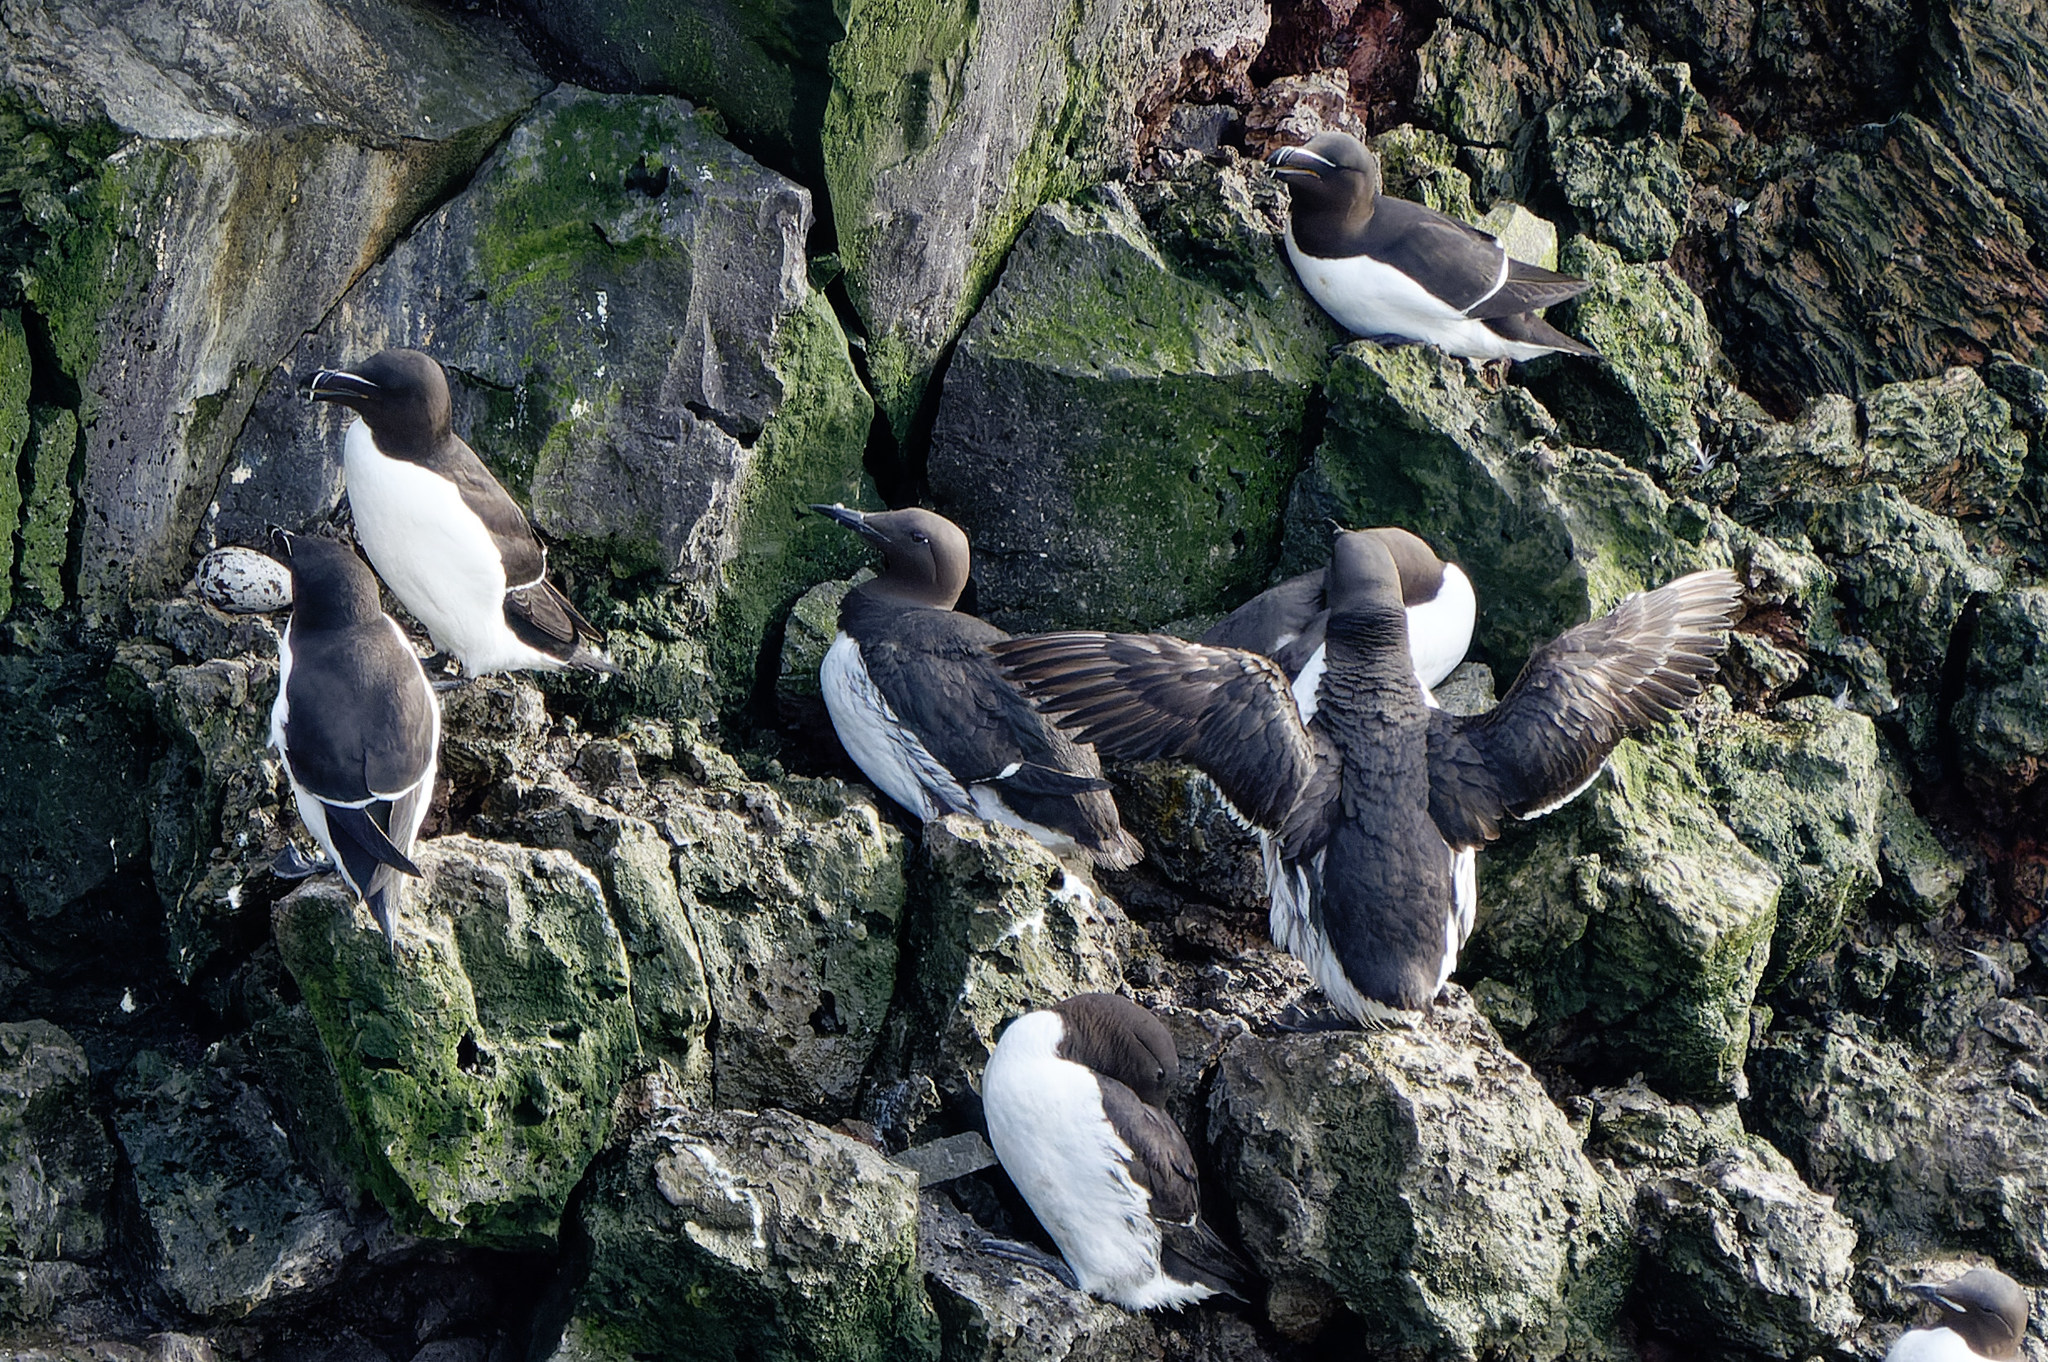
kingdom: Animalia
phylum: Chordata
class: Aves
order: Charadriiformes
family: Alcidae
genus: Alca
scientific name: Alca torda
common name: Razorbill
